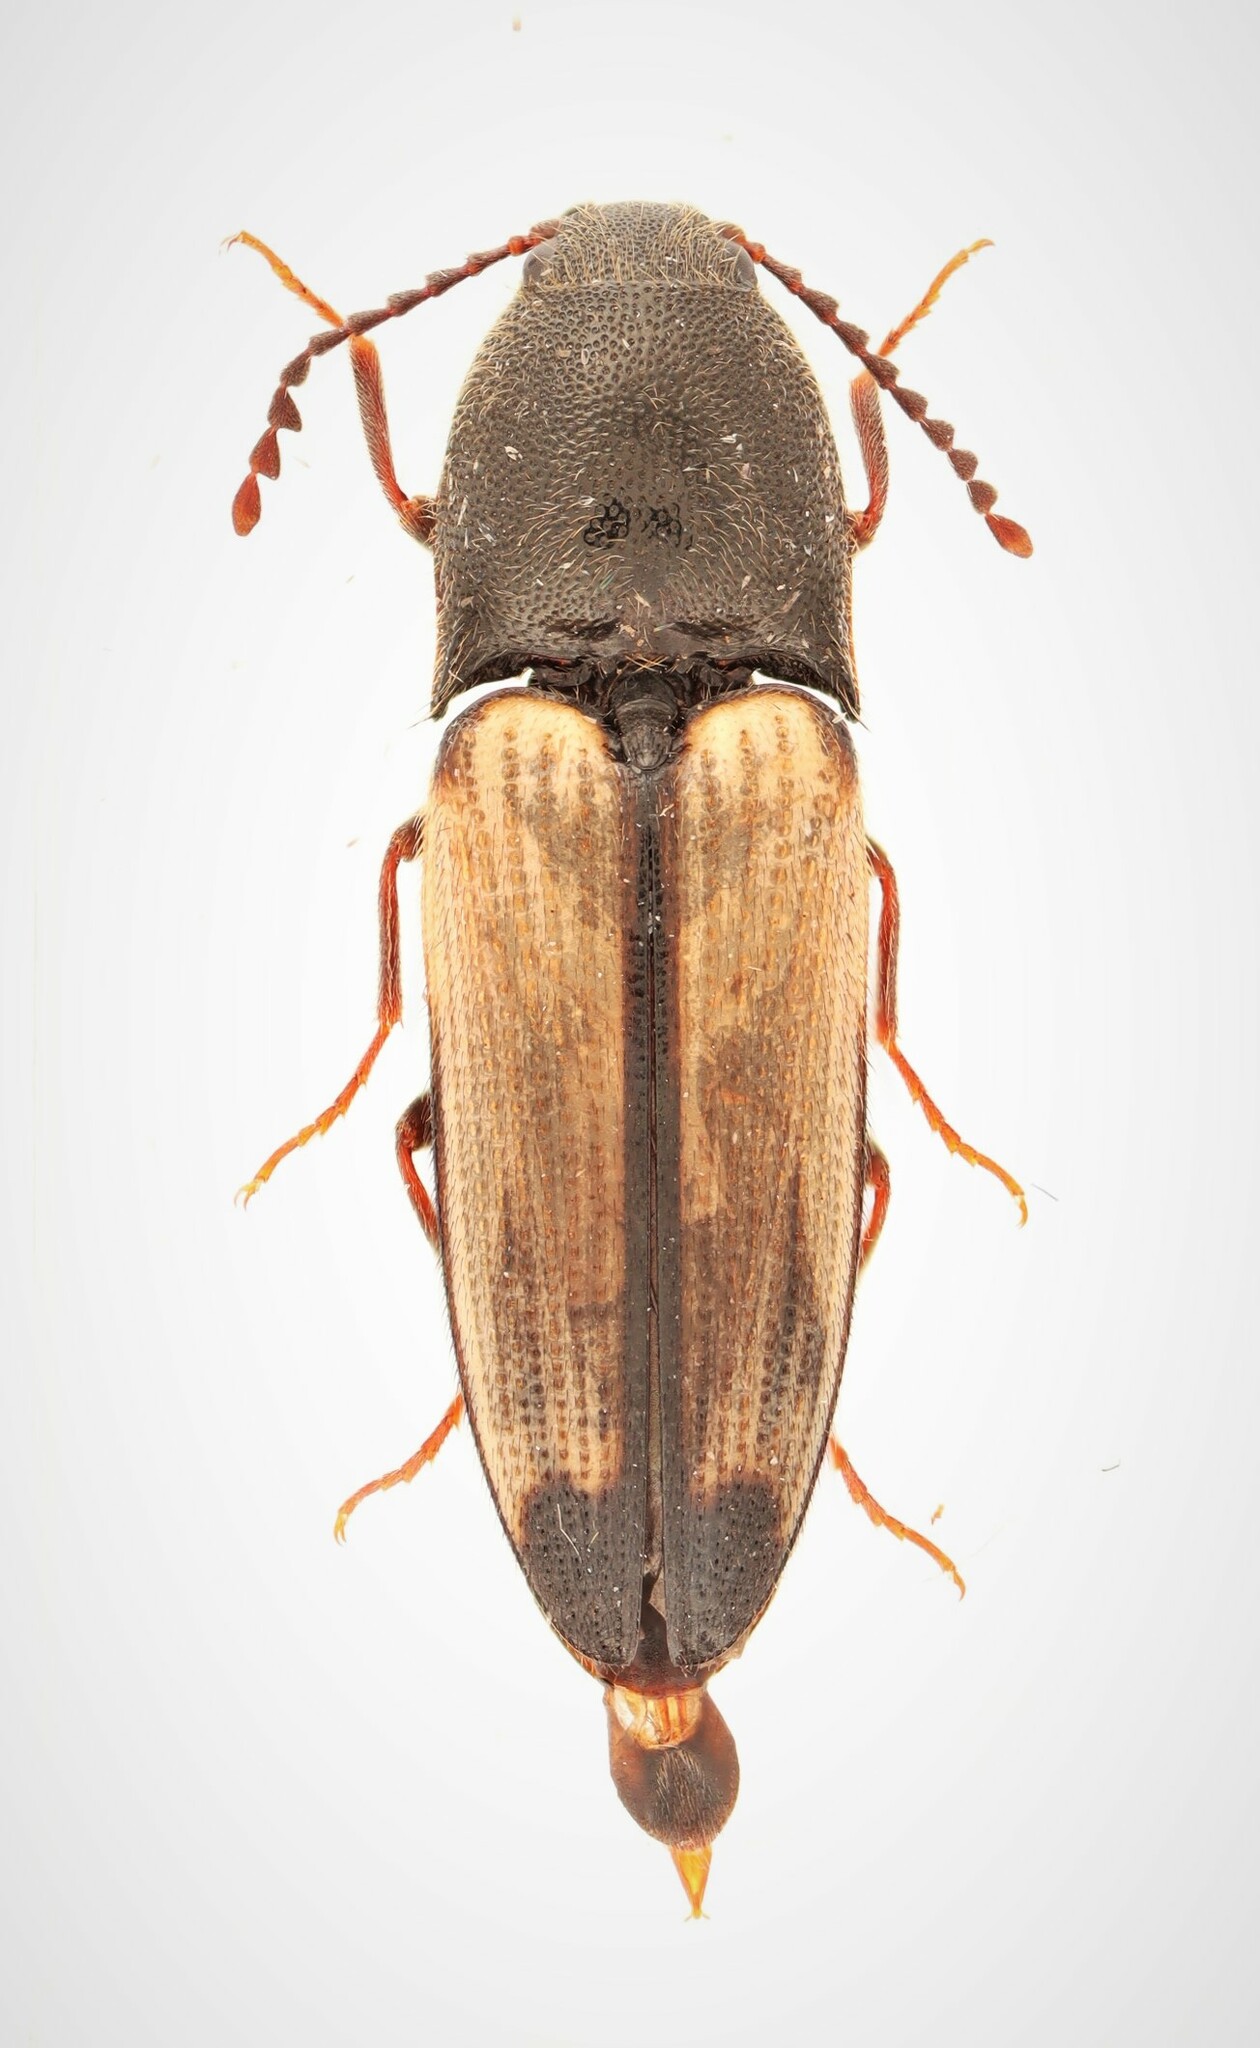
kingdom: Animalia
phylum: Arthropoda
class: Insecta
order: Coleoptera
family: Elateridae
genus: Ampedus
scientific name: Ampedus linteus
